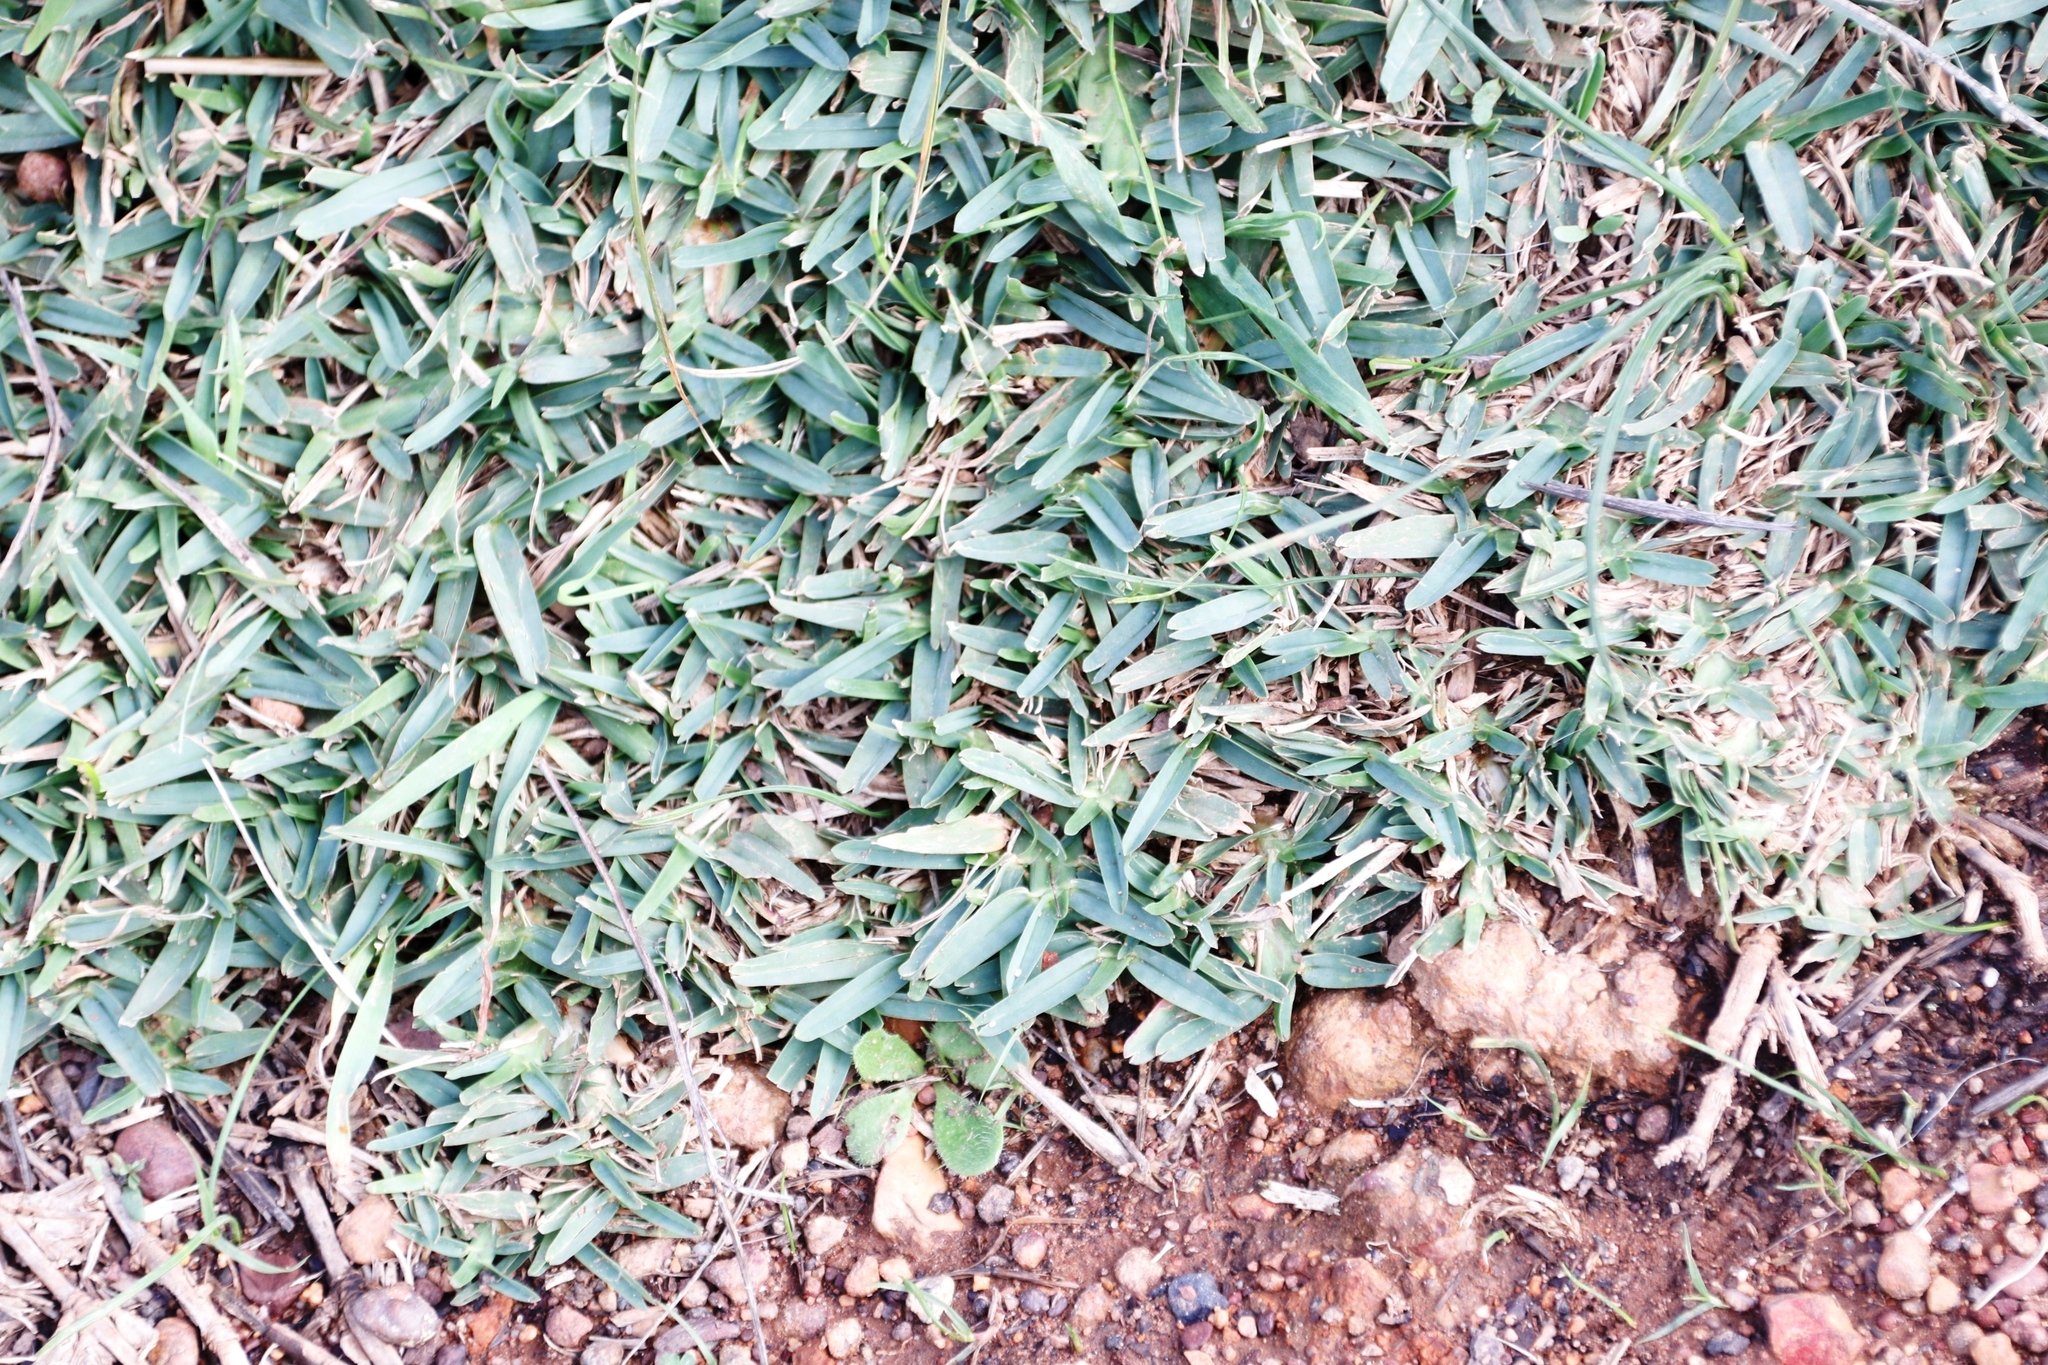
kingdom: Plantae
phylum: Tracheophyta
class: Liliopsida
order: Poales
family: Poaceae
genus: Stenotaphrum
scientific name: Stenotaphrum secundatum
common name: St. augustine grass
